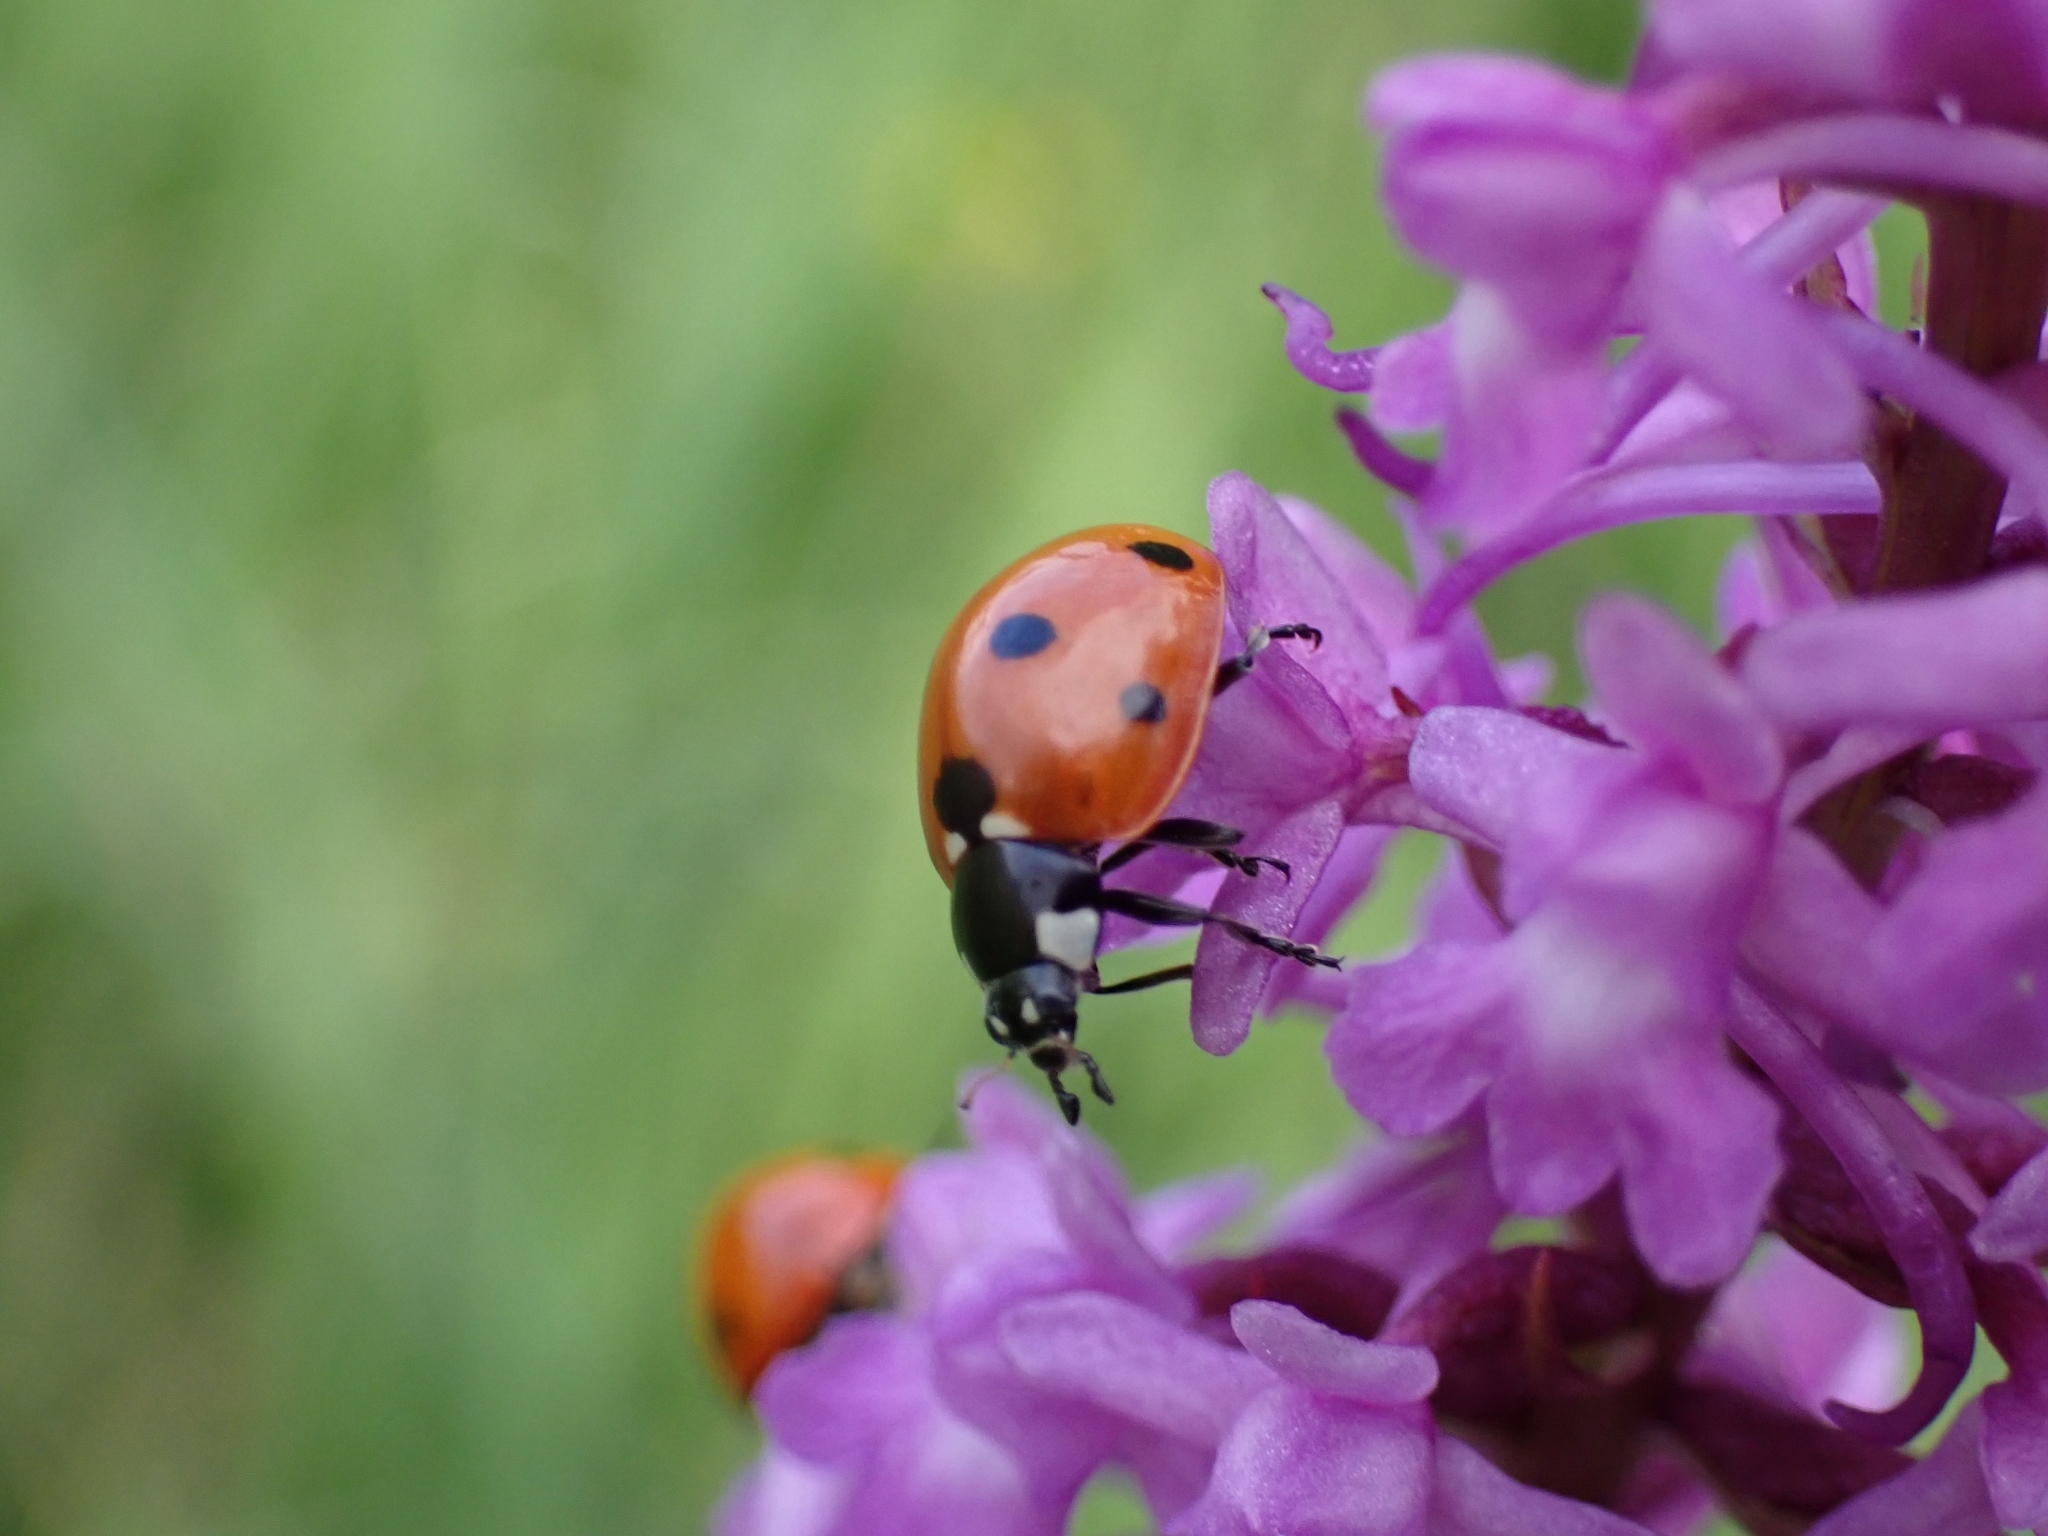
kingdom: Animalia
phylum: Arthropoda
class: Insecta
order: Coleoptera
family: Coccinellidae
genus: Coccinella
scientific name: Coccinella septempunctata
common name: Sevenspotted lady beetle
